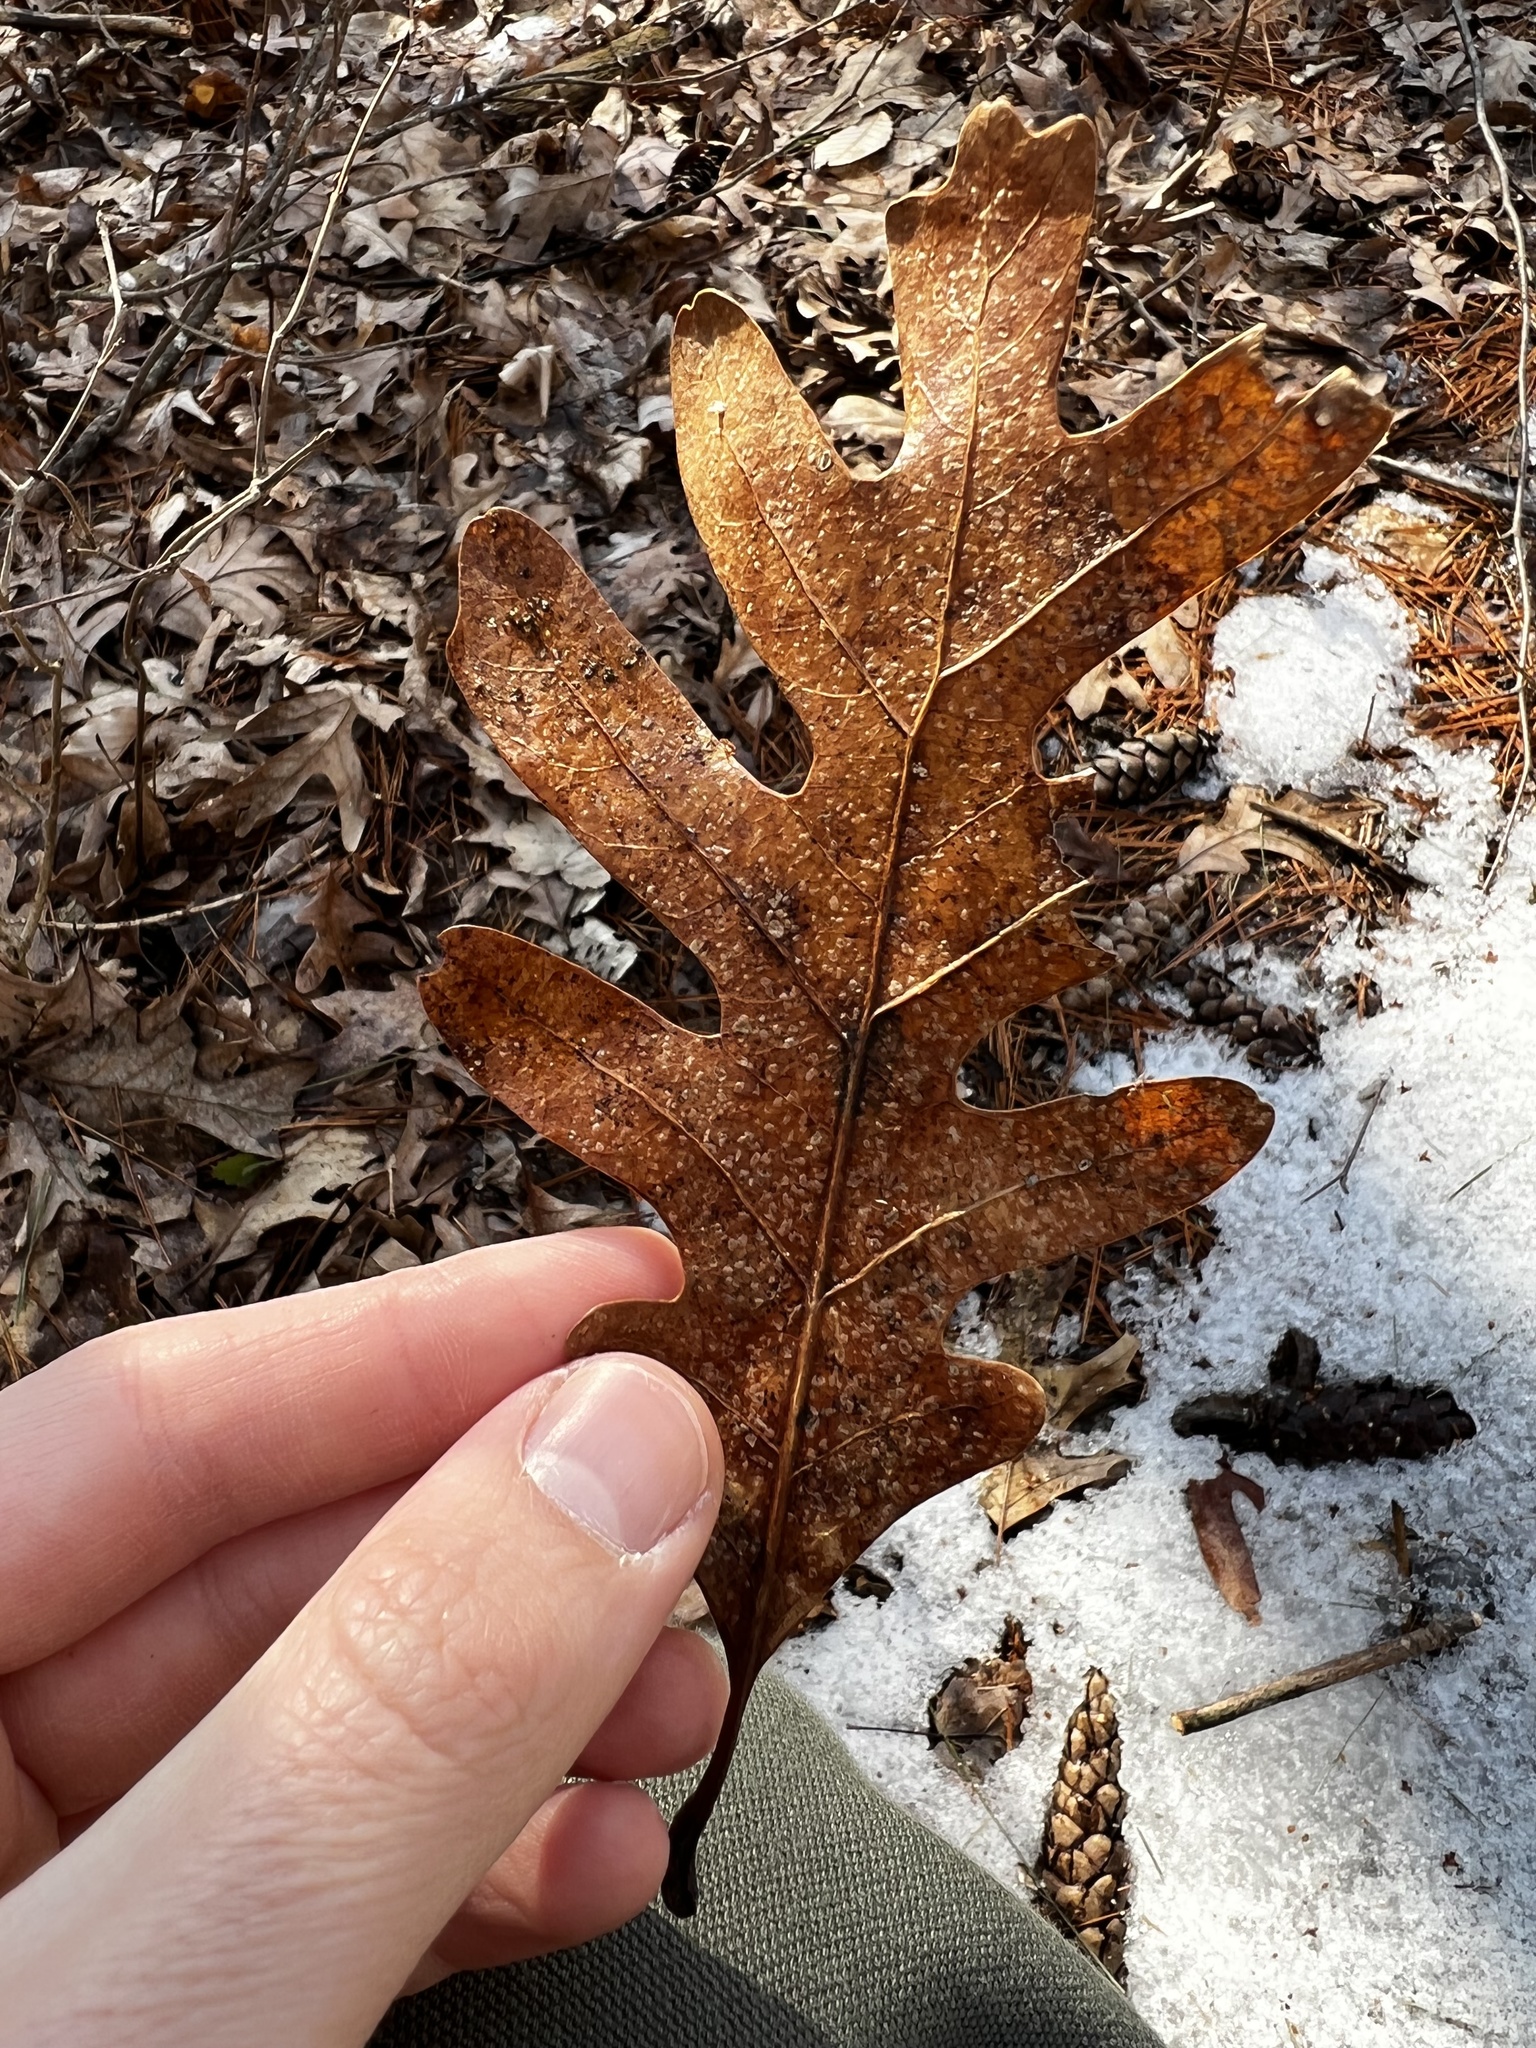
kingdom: Plantae
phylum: Tracheophyta
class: Magnoliopsida
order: Fagales
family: Fagaceae
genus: Quercus
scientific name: Quercus alba
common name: White oak
